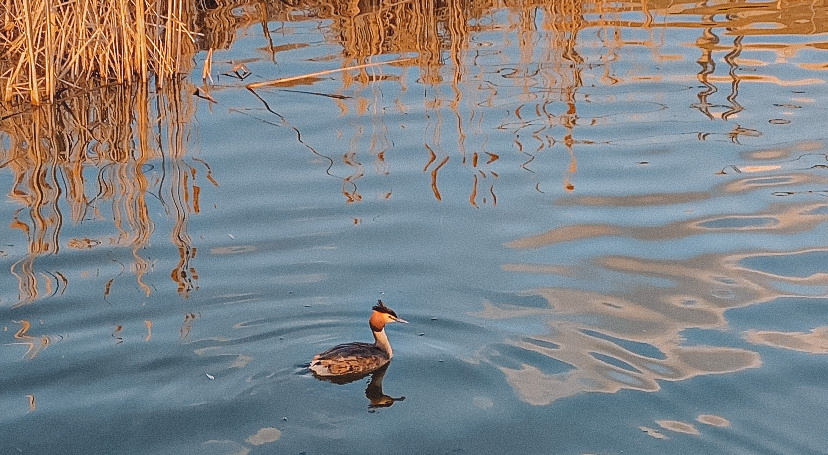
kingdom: Animalia
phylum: Chordata
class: Aves
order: Podicipediformes
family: Podicipedidae
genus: Podiceps
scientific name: Podiceps cristatus
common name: Great crested grebe
